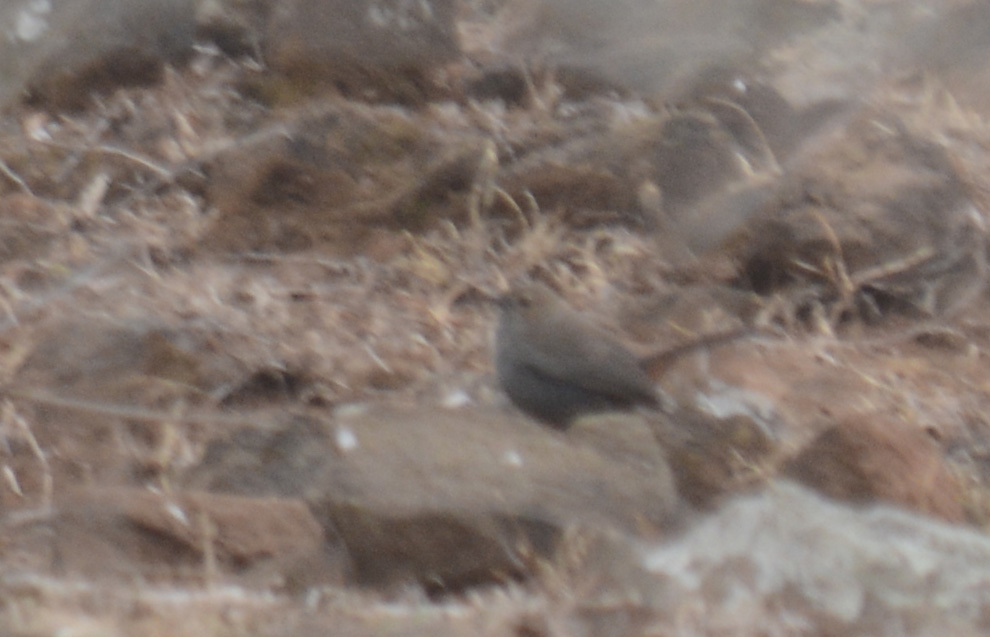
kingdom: Animalia
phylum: Chordata
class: Aves
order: Passeriformes
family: Muscicapidae
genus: Saxicoloides
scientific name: Saxicoloides fulicatus
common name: Indian robin
